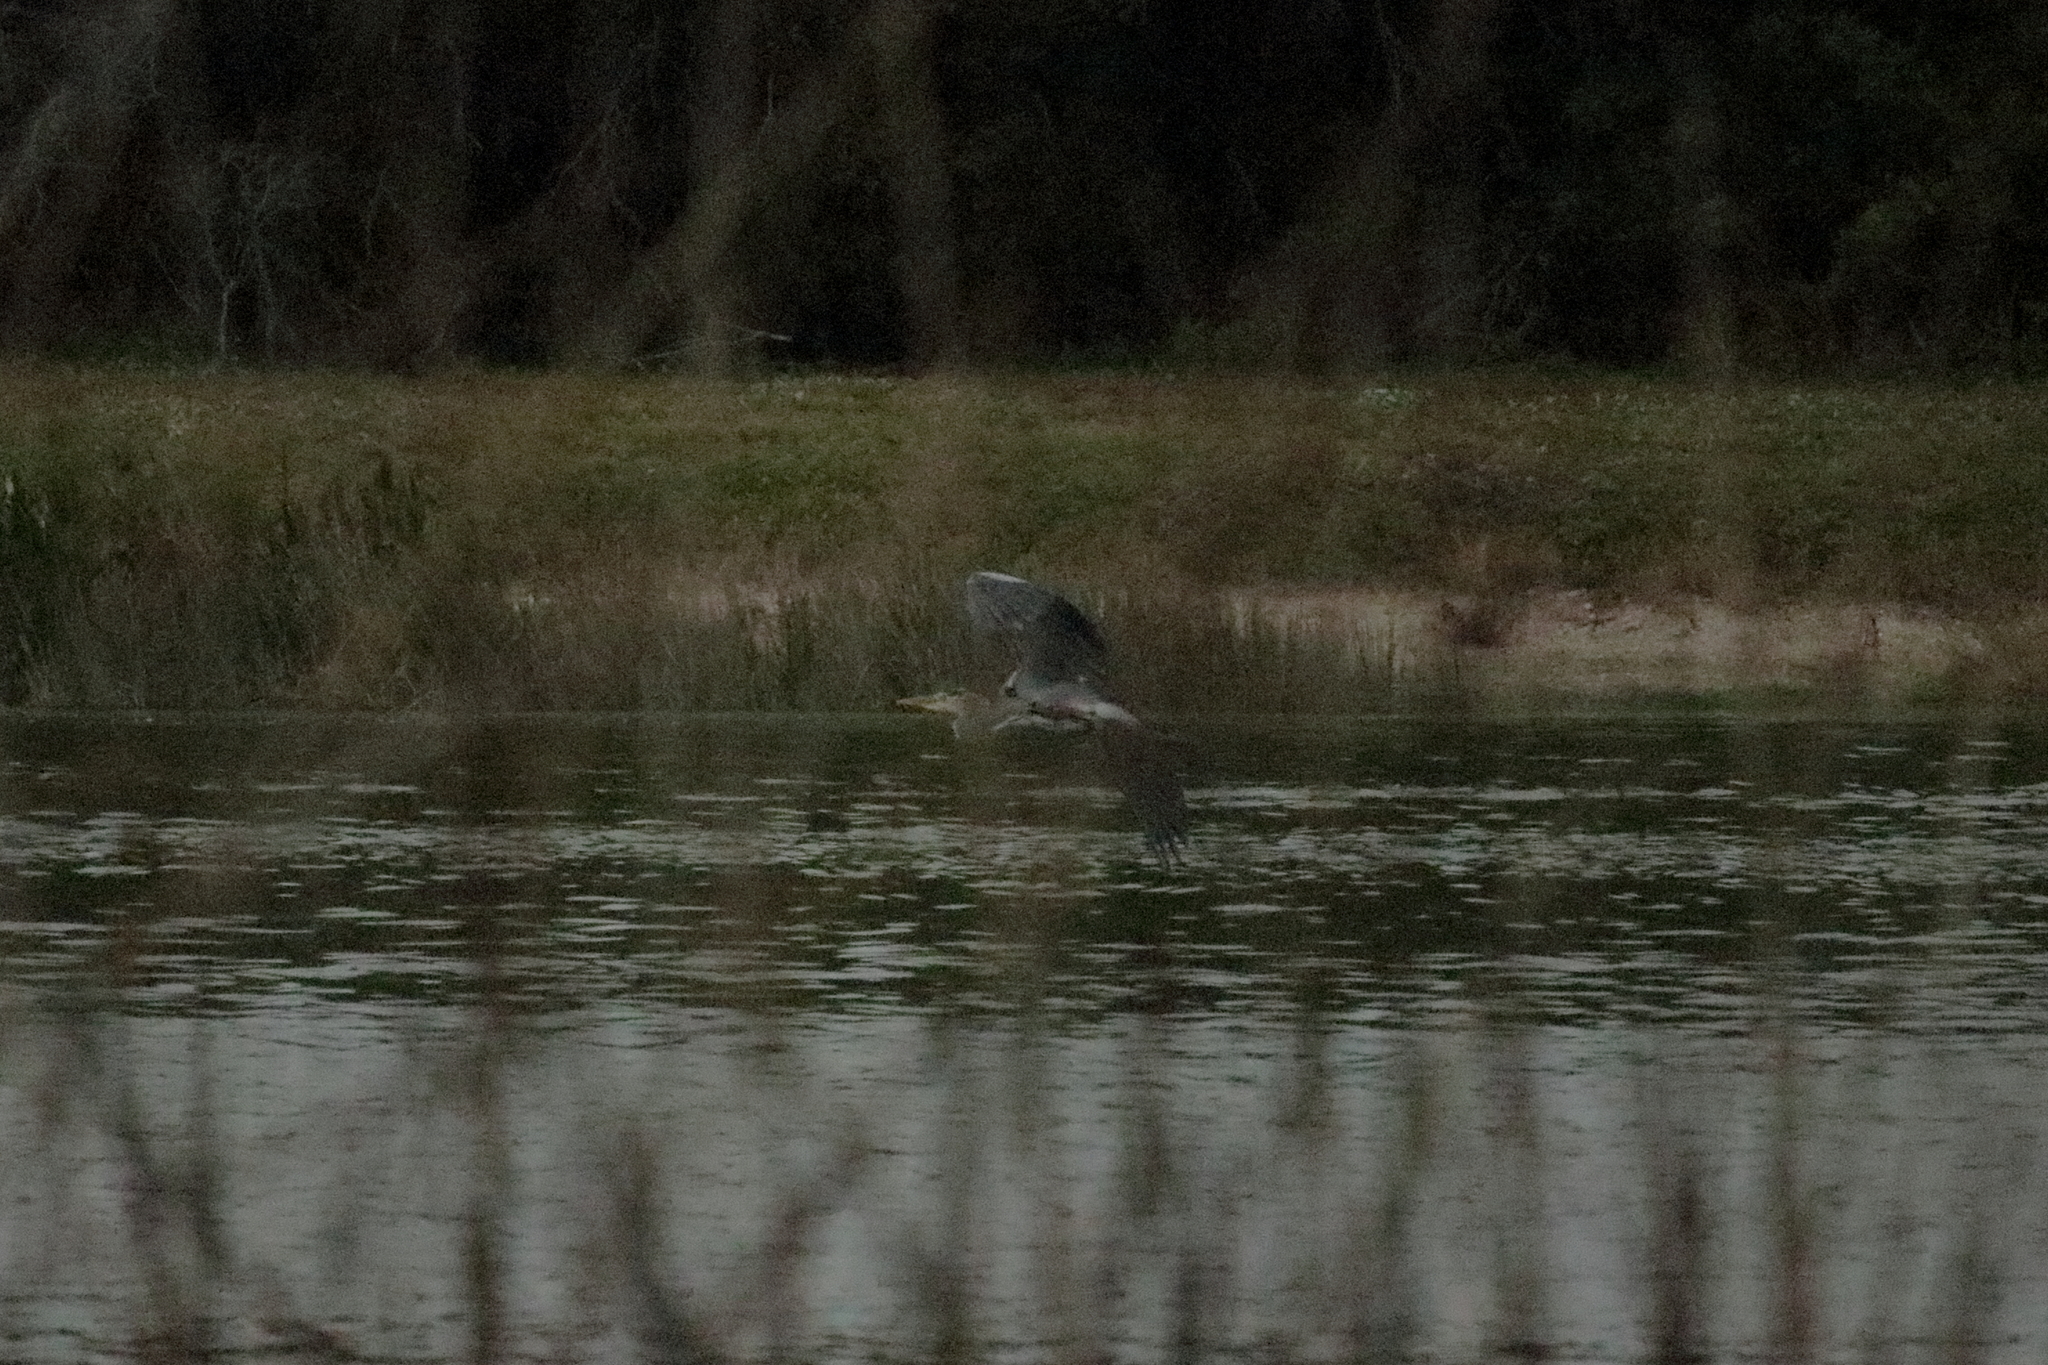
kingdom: Animalia
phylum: Chordata
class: Aves
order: Pelecaniformes
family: Ardeidae
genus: Ardea
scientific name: Ardea herodias
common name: Great blue heron
